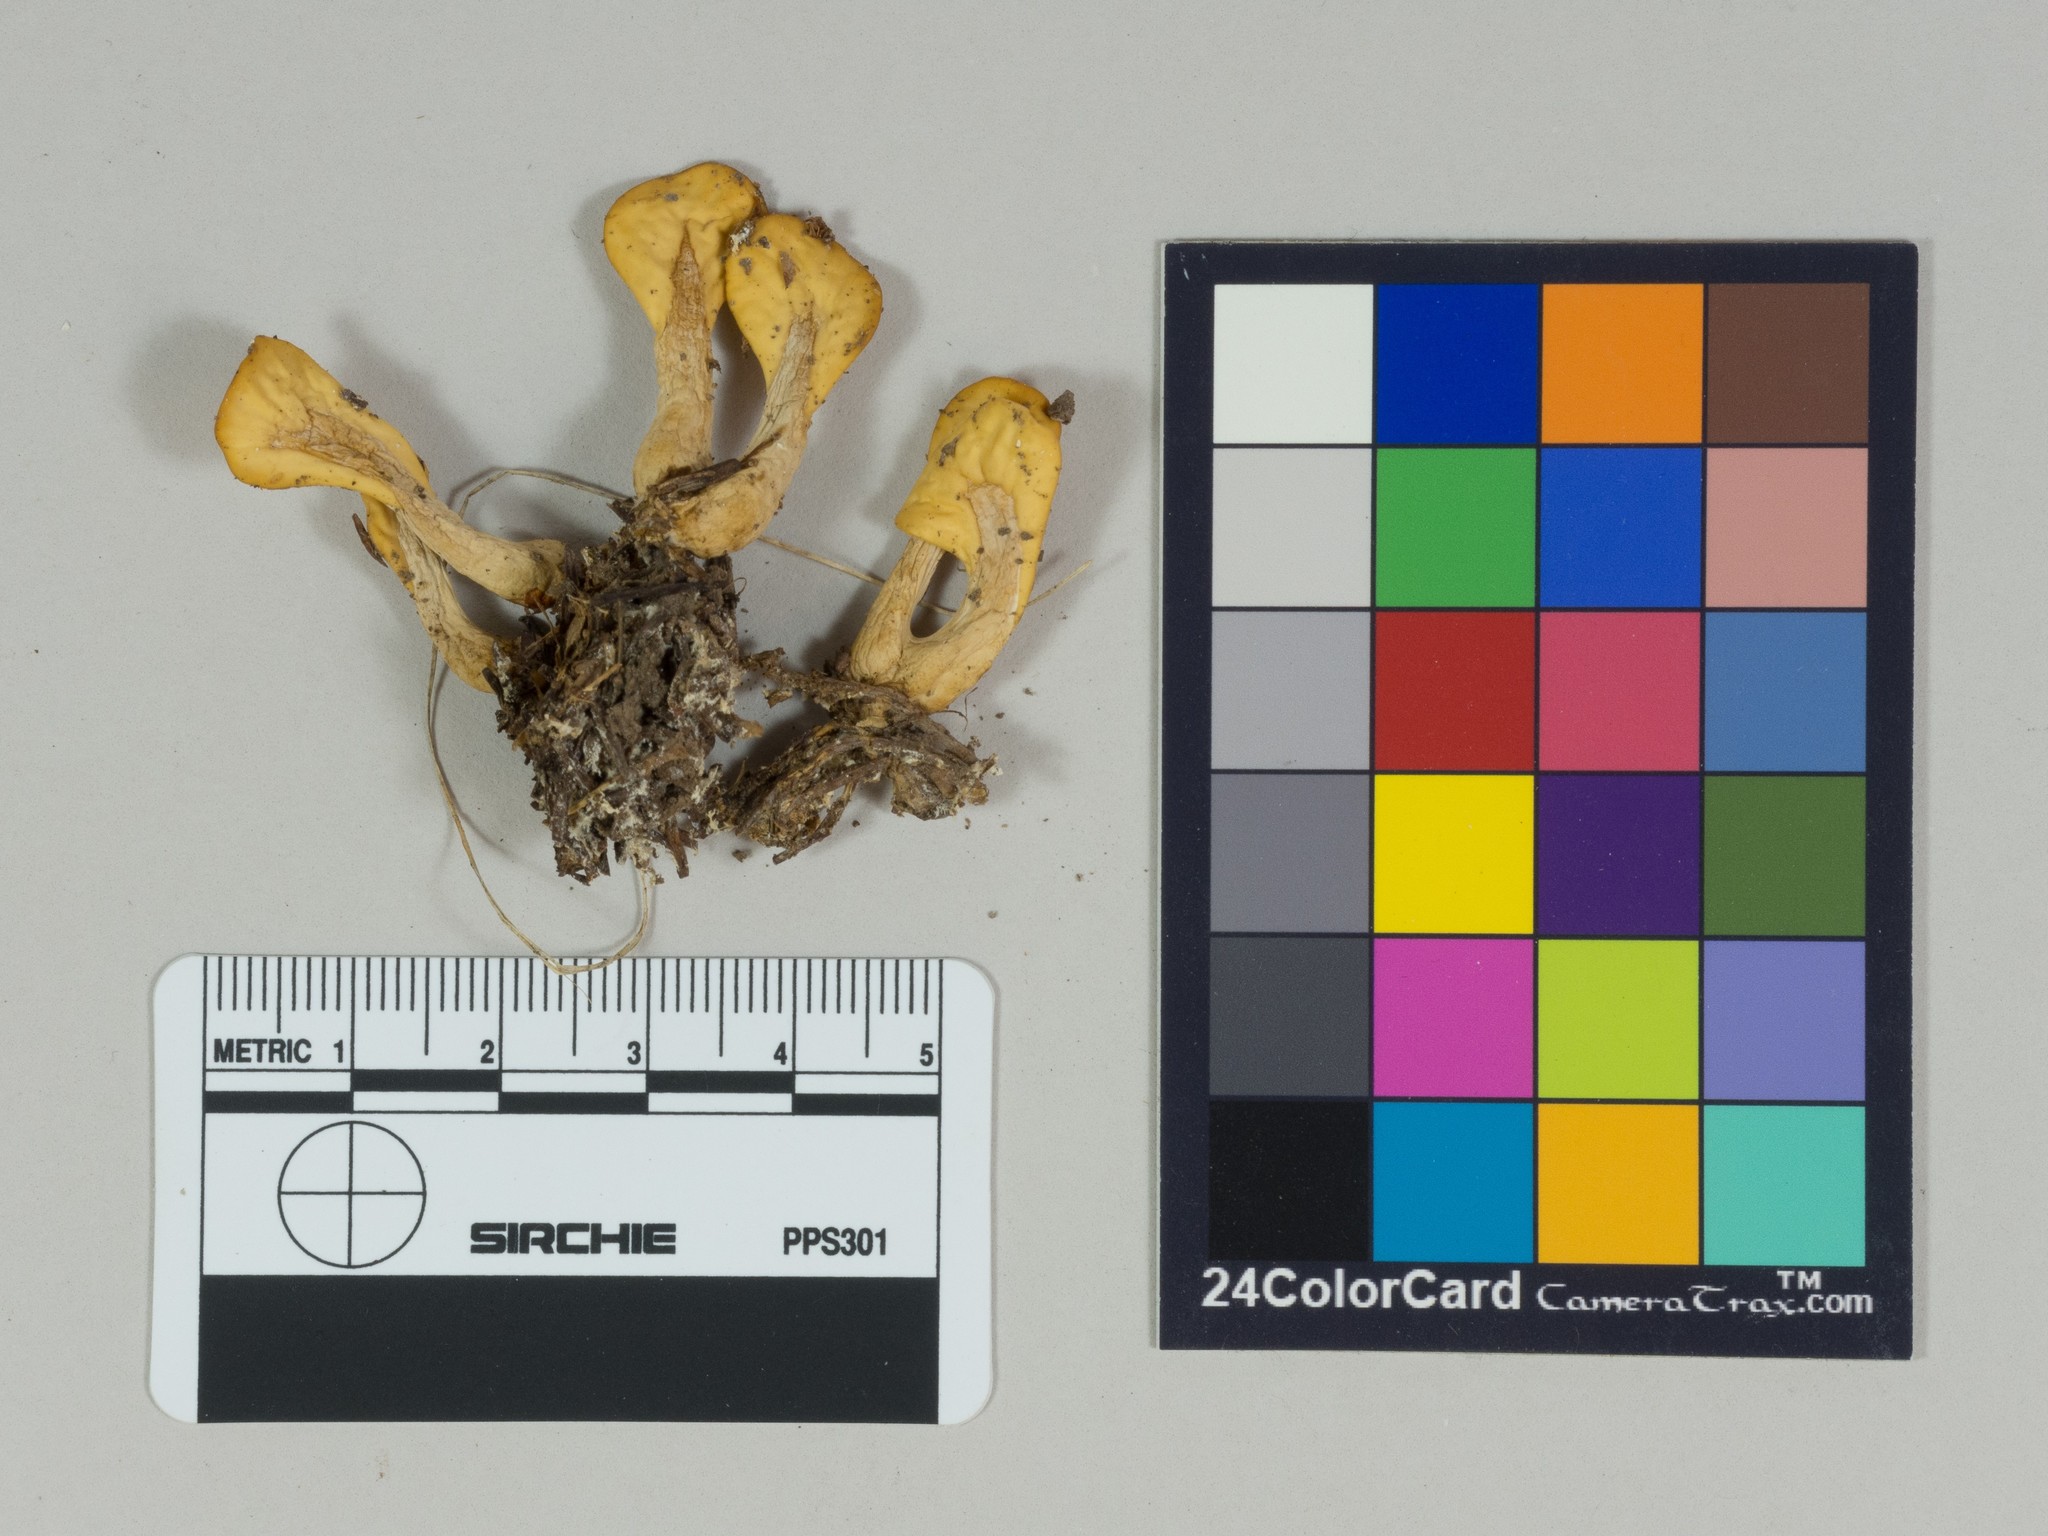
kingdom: Fungi
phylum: Ascomycota
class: Leotiomycetes
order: Rhytismatales
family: Cudoniaceae
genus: Spathularia
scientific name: Spathularia flavida
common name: Yellow fan
